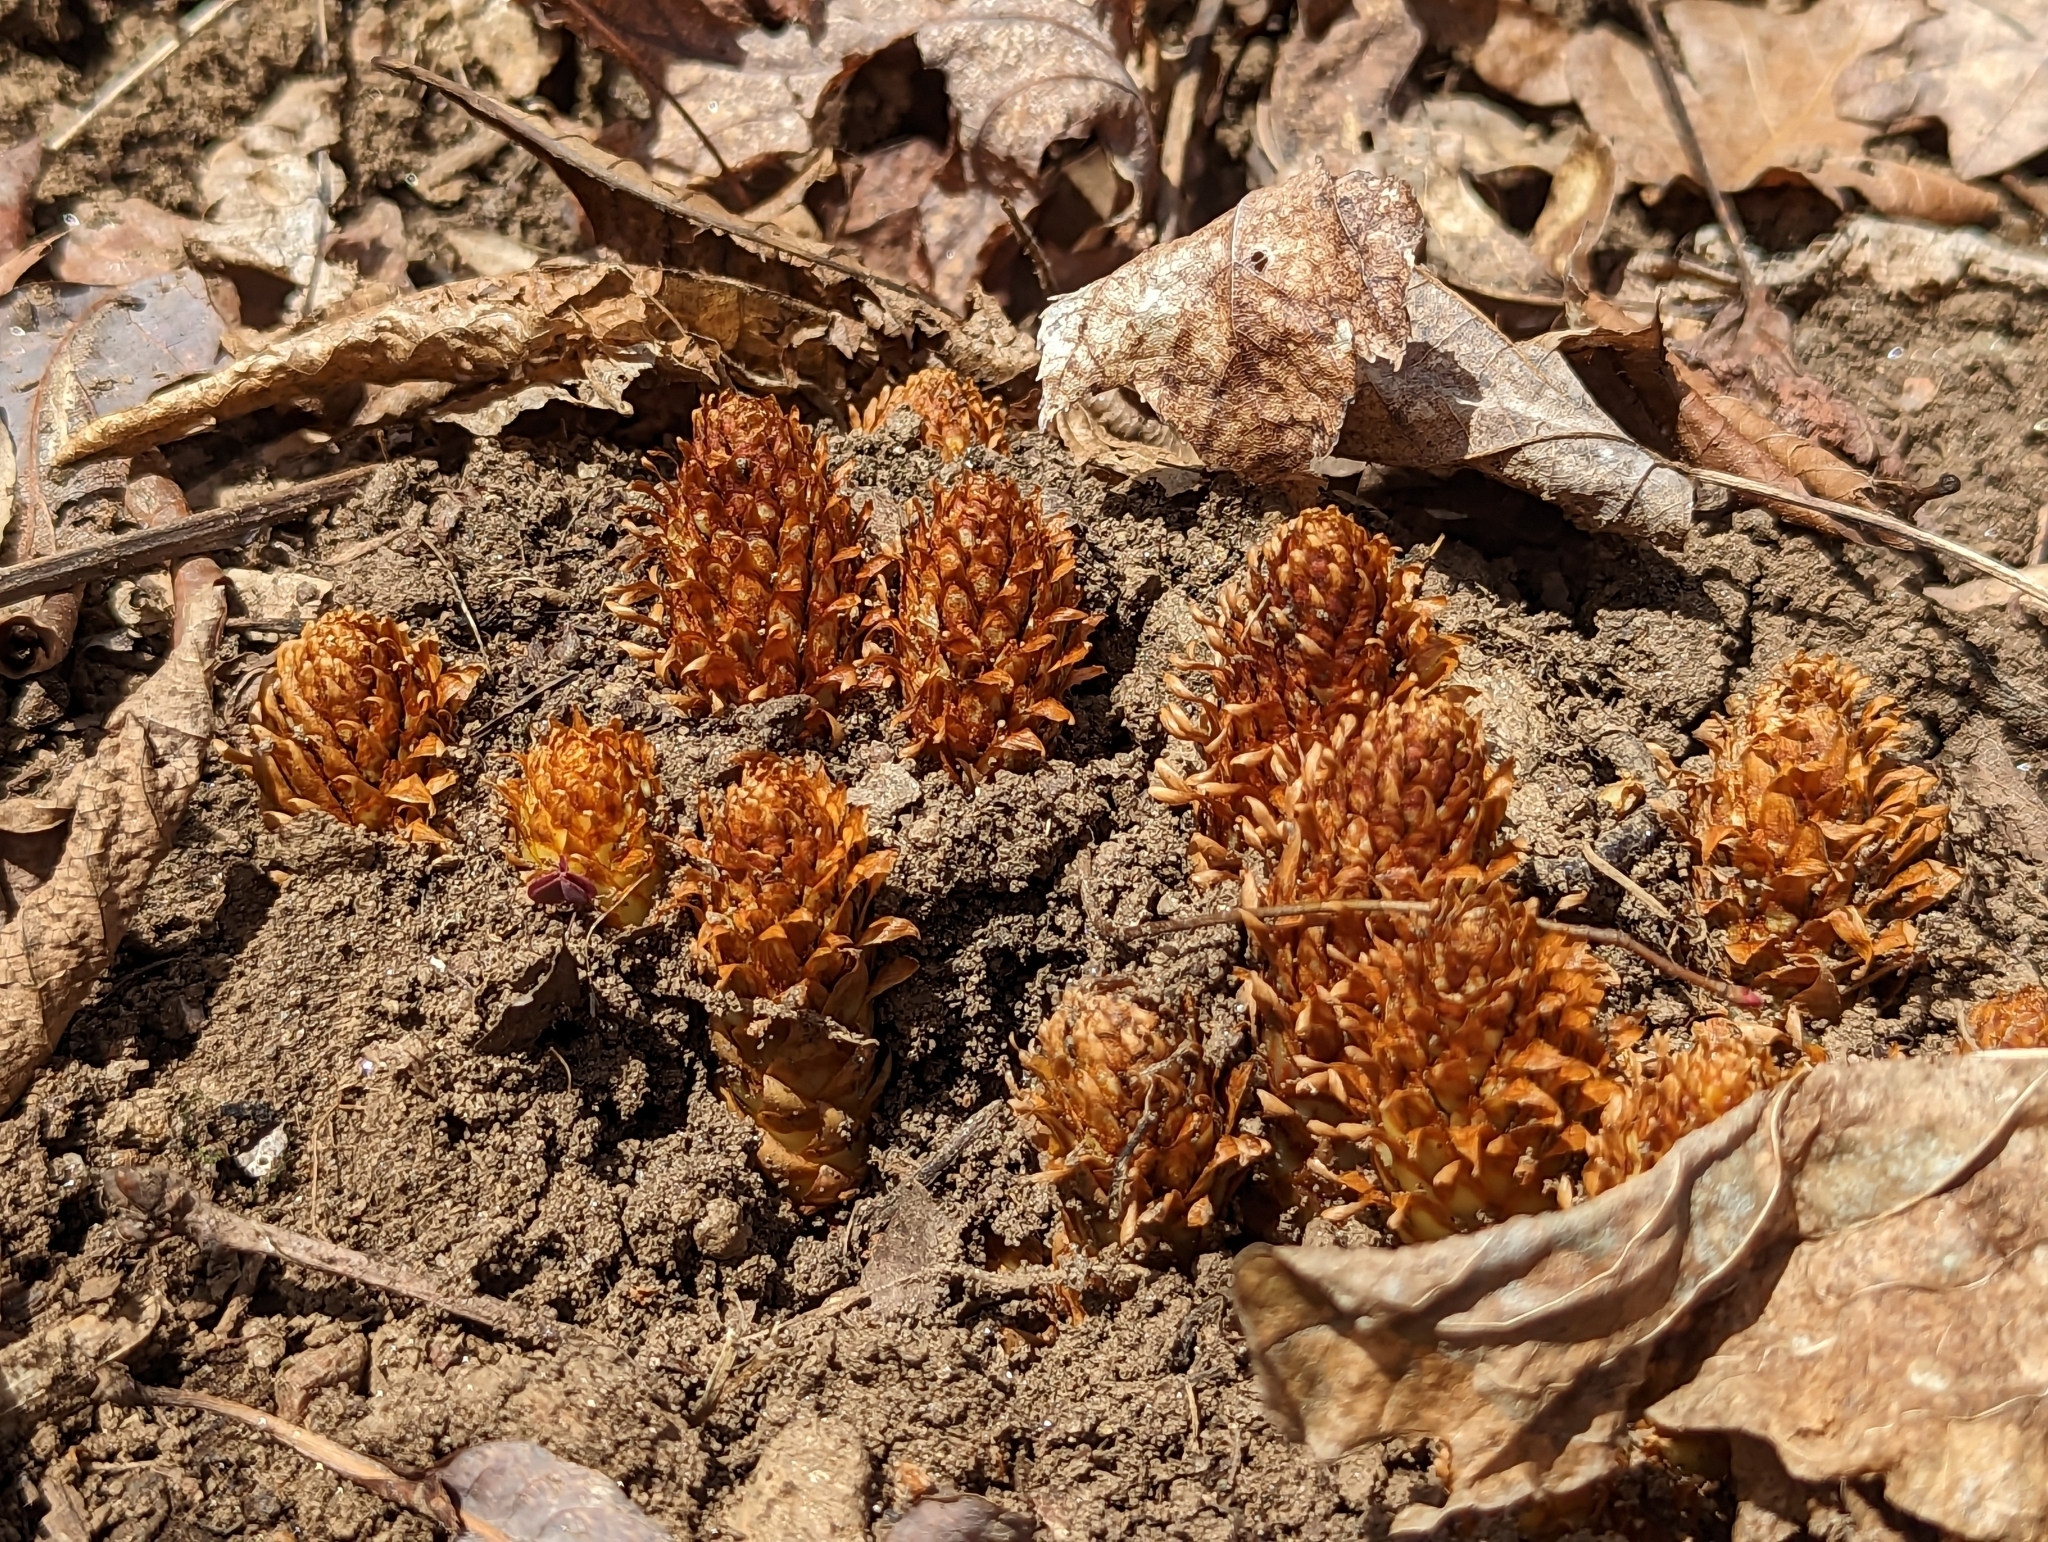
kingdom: Plantae
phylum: Tracheophyta
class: Magnoliopsida
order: Lamiales
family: Orobanchaceae
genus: Conopholis
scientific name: Conopholis americana
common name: American cancer-root
